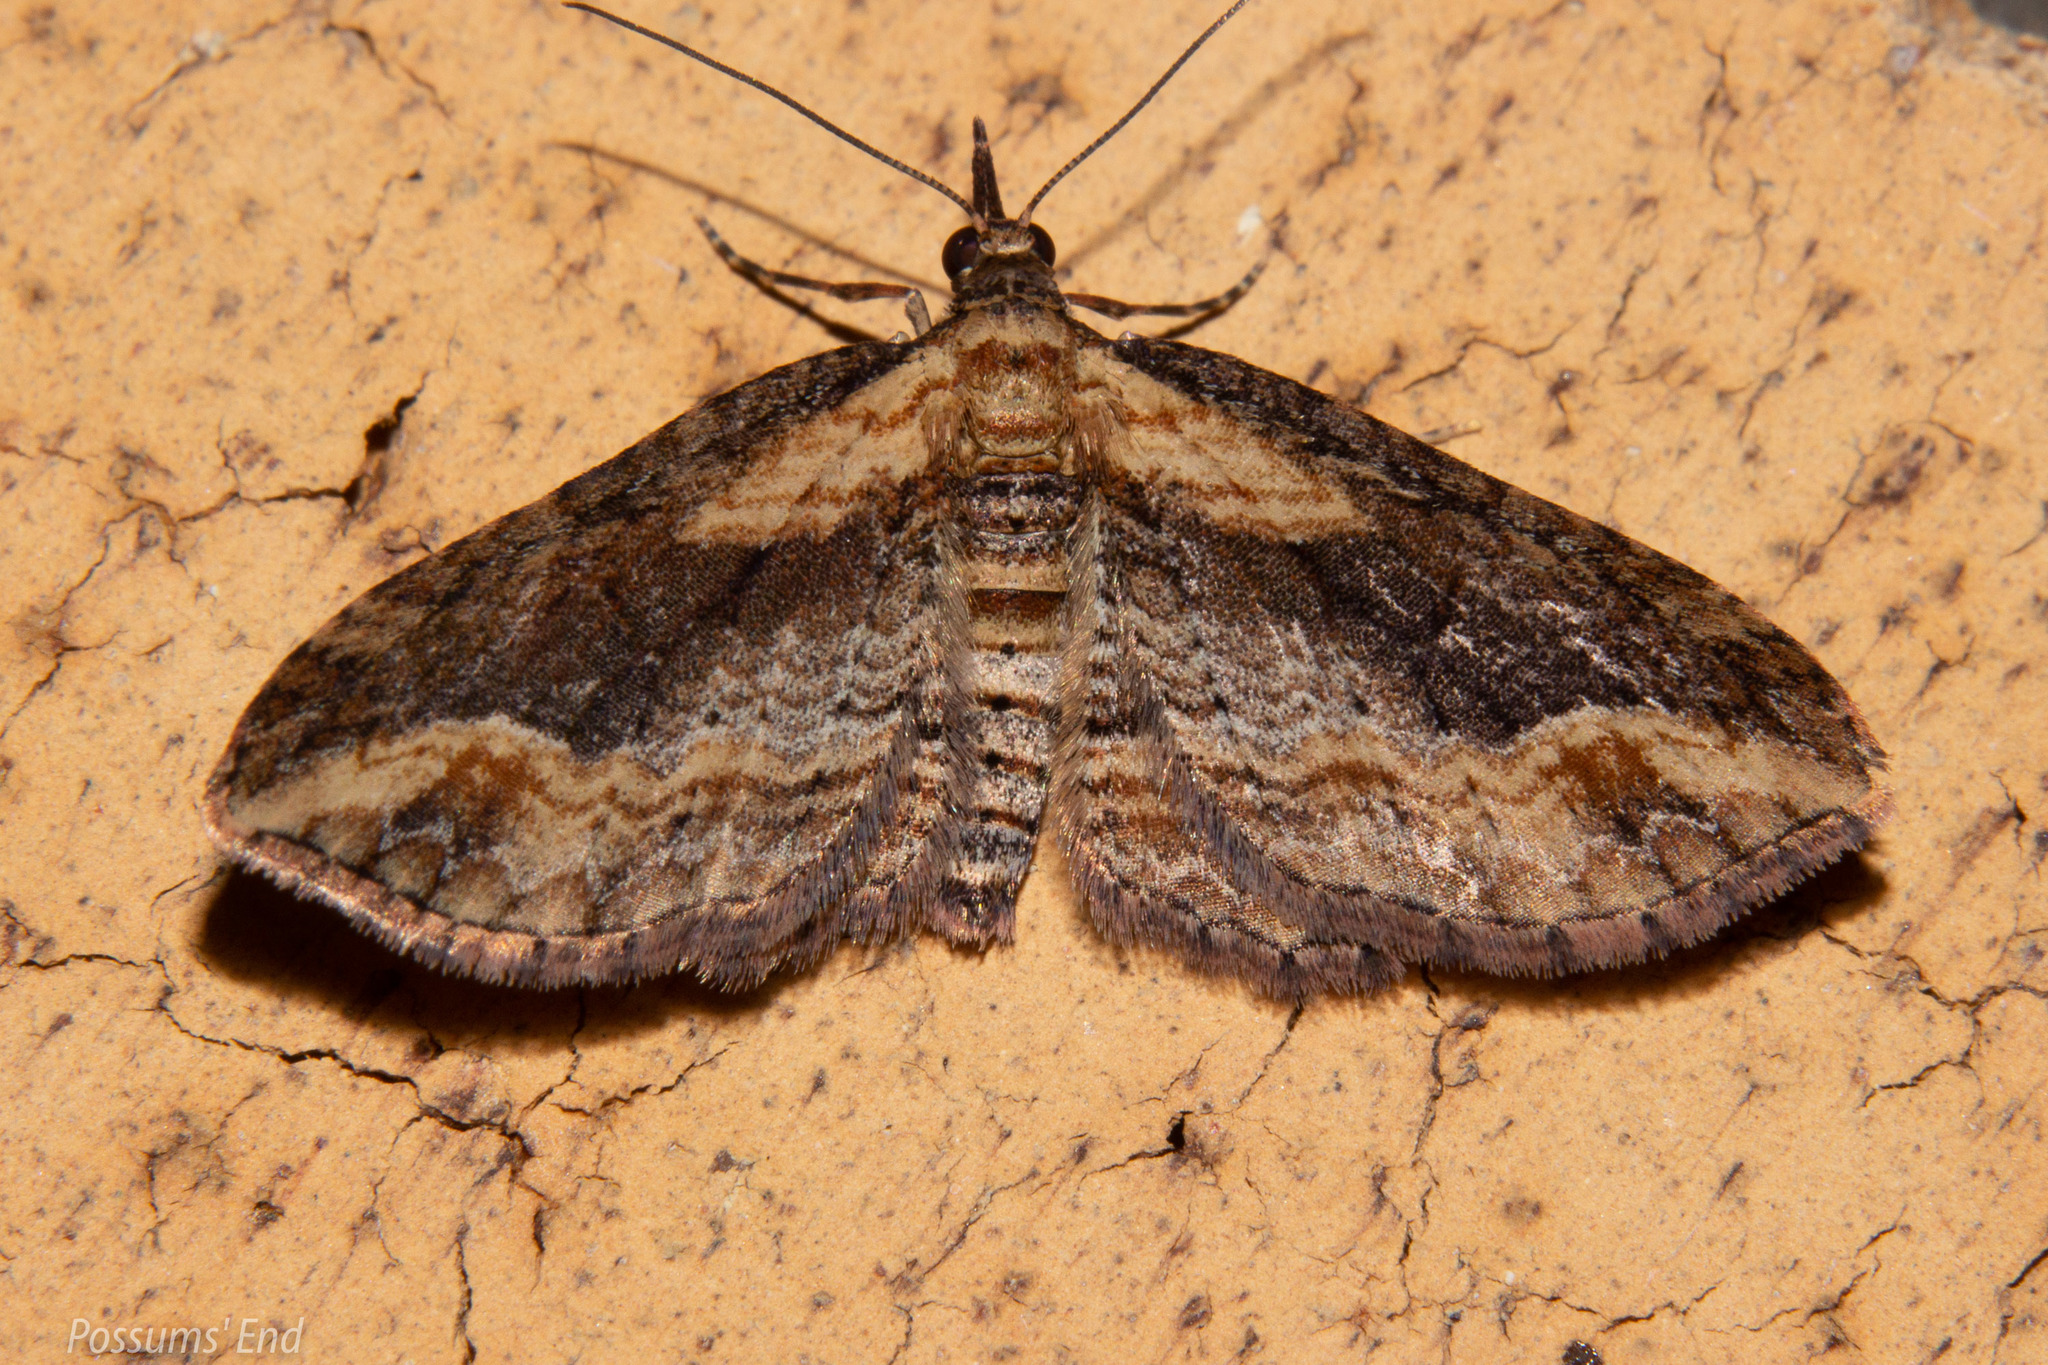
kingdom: Animalia
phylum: Arthropoda
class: Insecta
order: Lepidoptera
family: Geometridae
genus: Chloroclystis
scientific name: Chloroclystis filata
